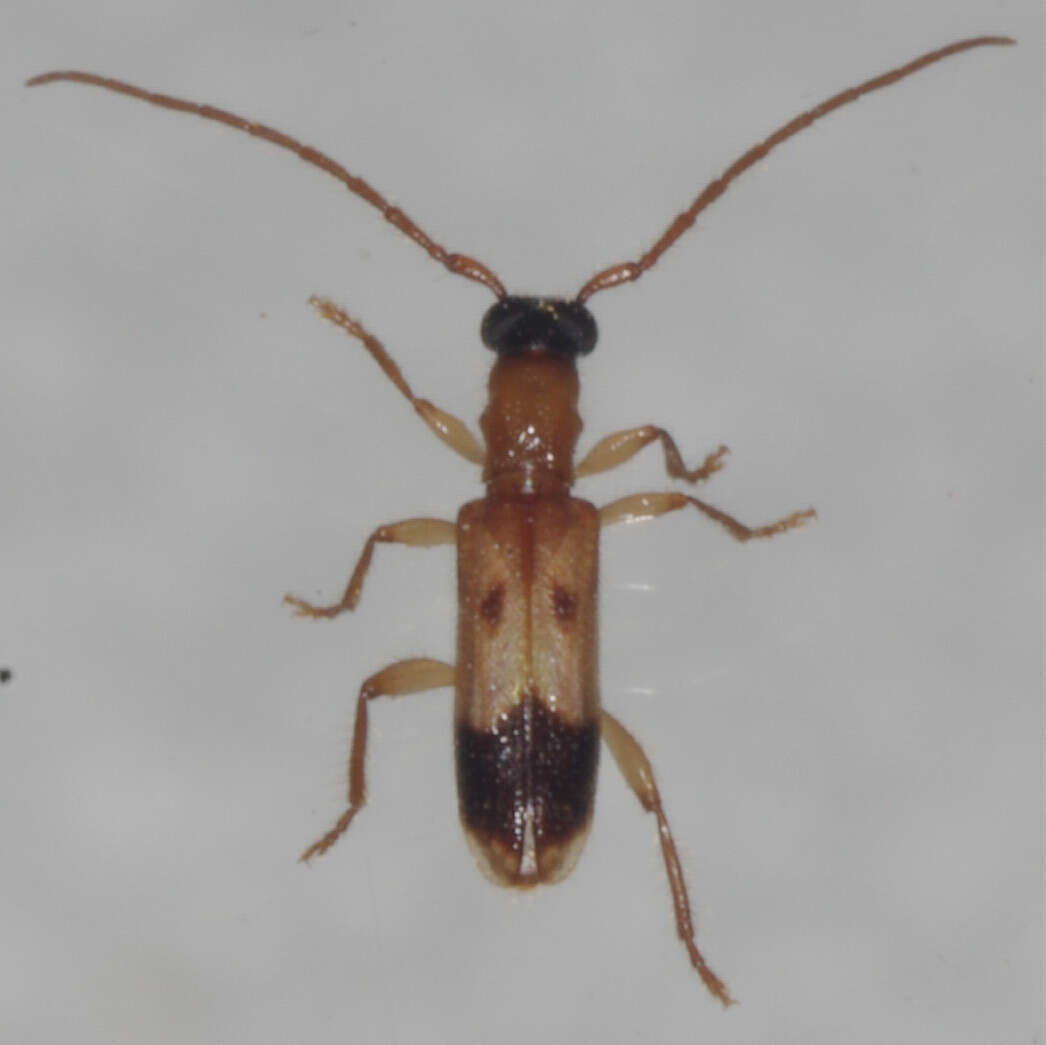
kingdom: Animalia
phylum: Arthropoda
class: Insecta
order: Coleoptera
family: Cerambycidae
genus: Atesta
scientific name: Atesta stigmosa
